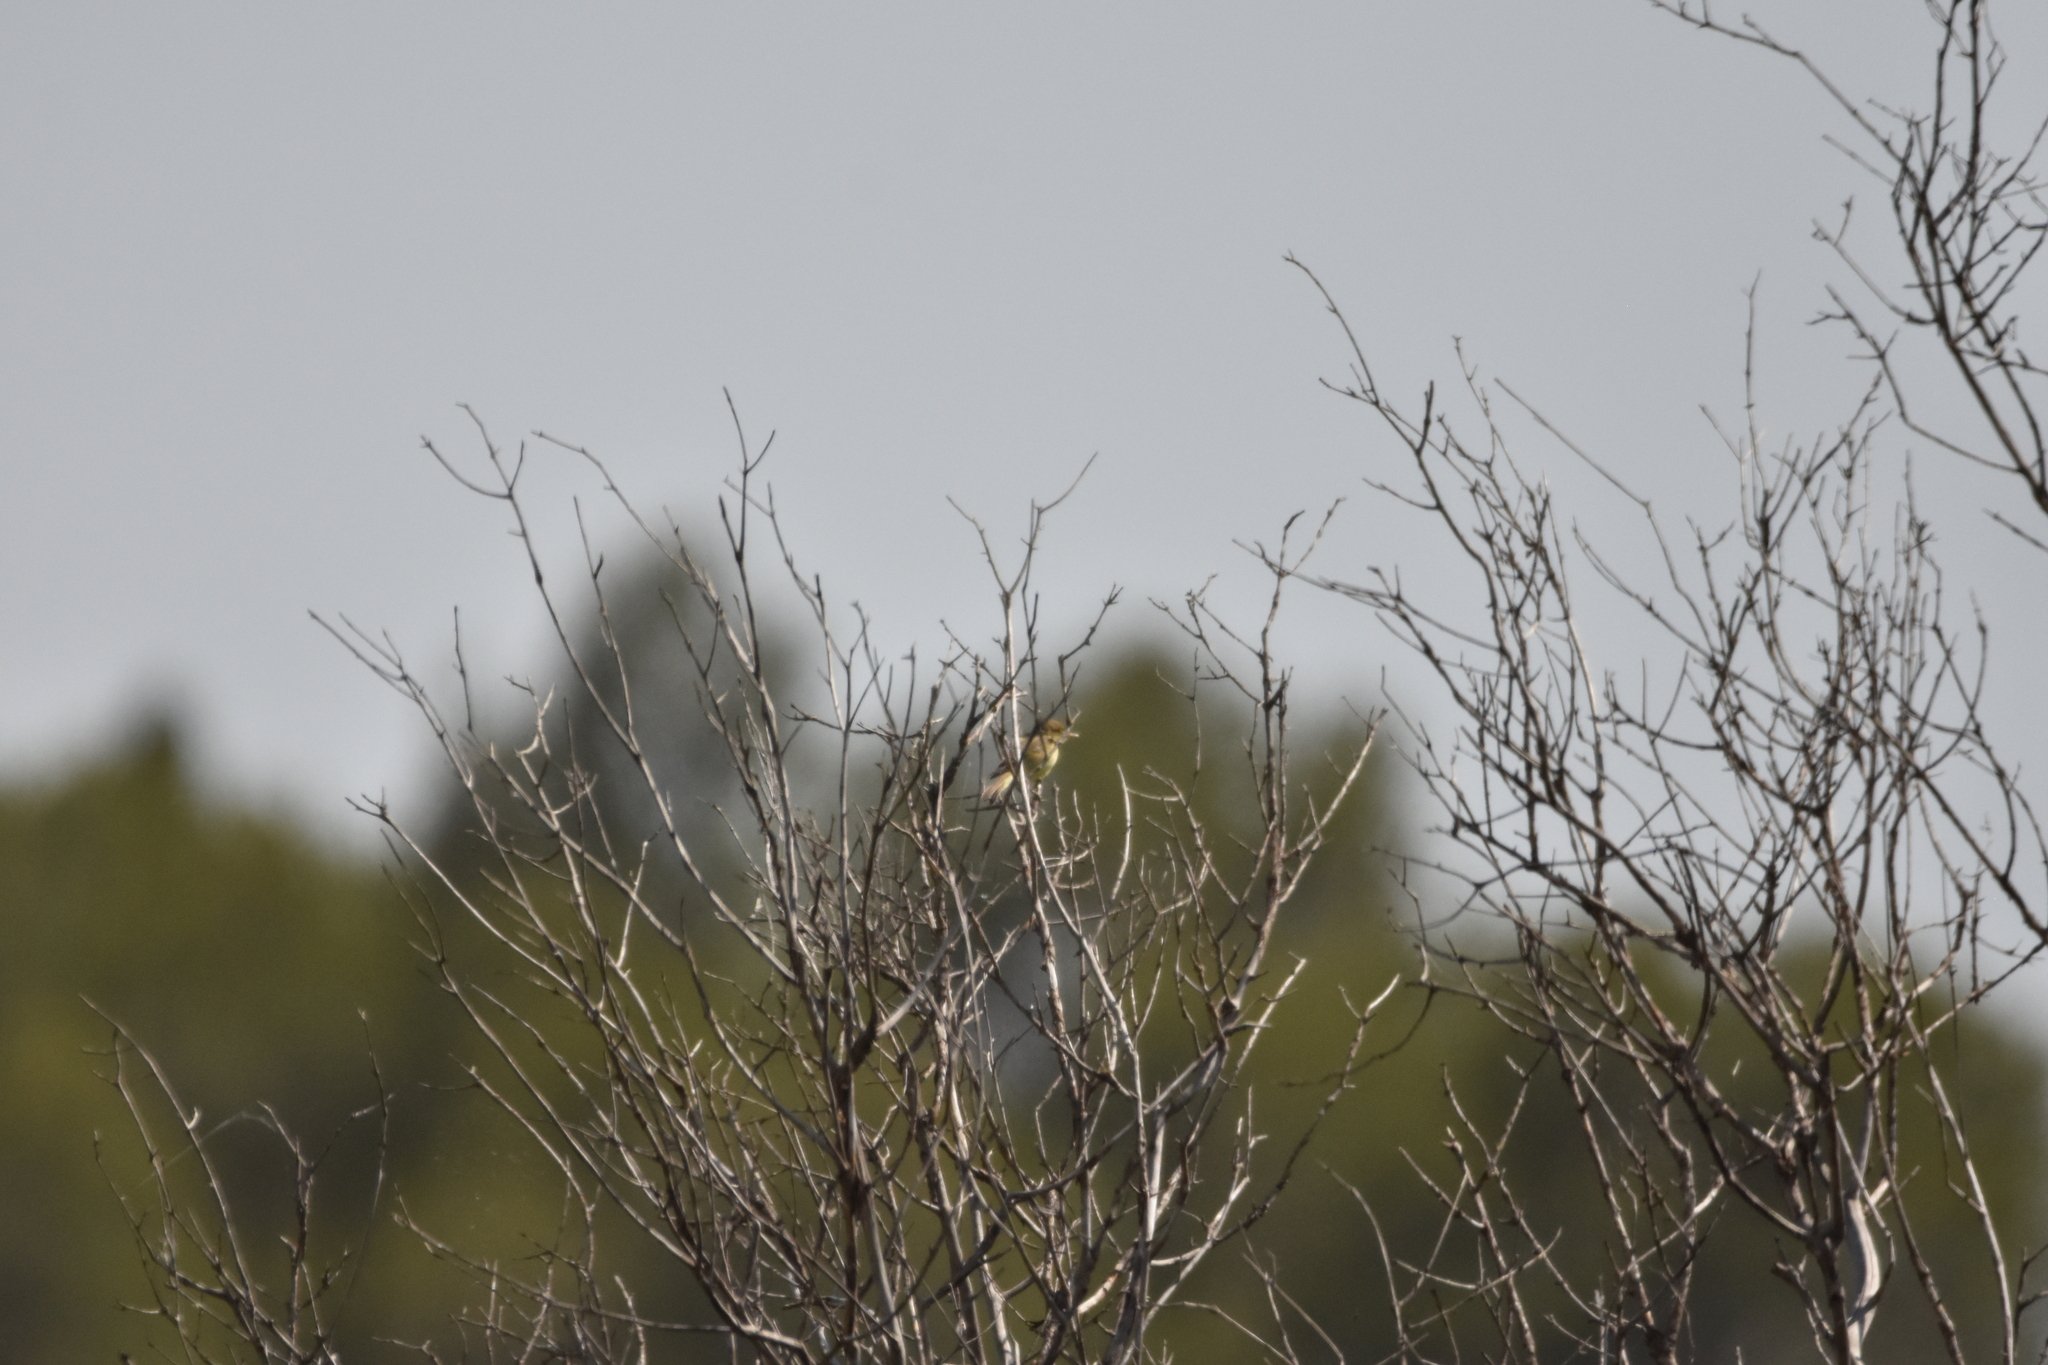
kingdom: Animalia
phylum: Chordata
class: Aves
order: Passeriformes
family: Acrocephalidae
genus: Hippolais
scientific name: Hippolais polyglotta
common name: Melodious warbler
